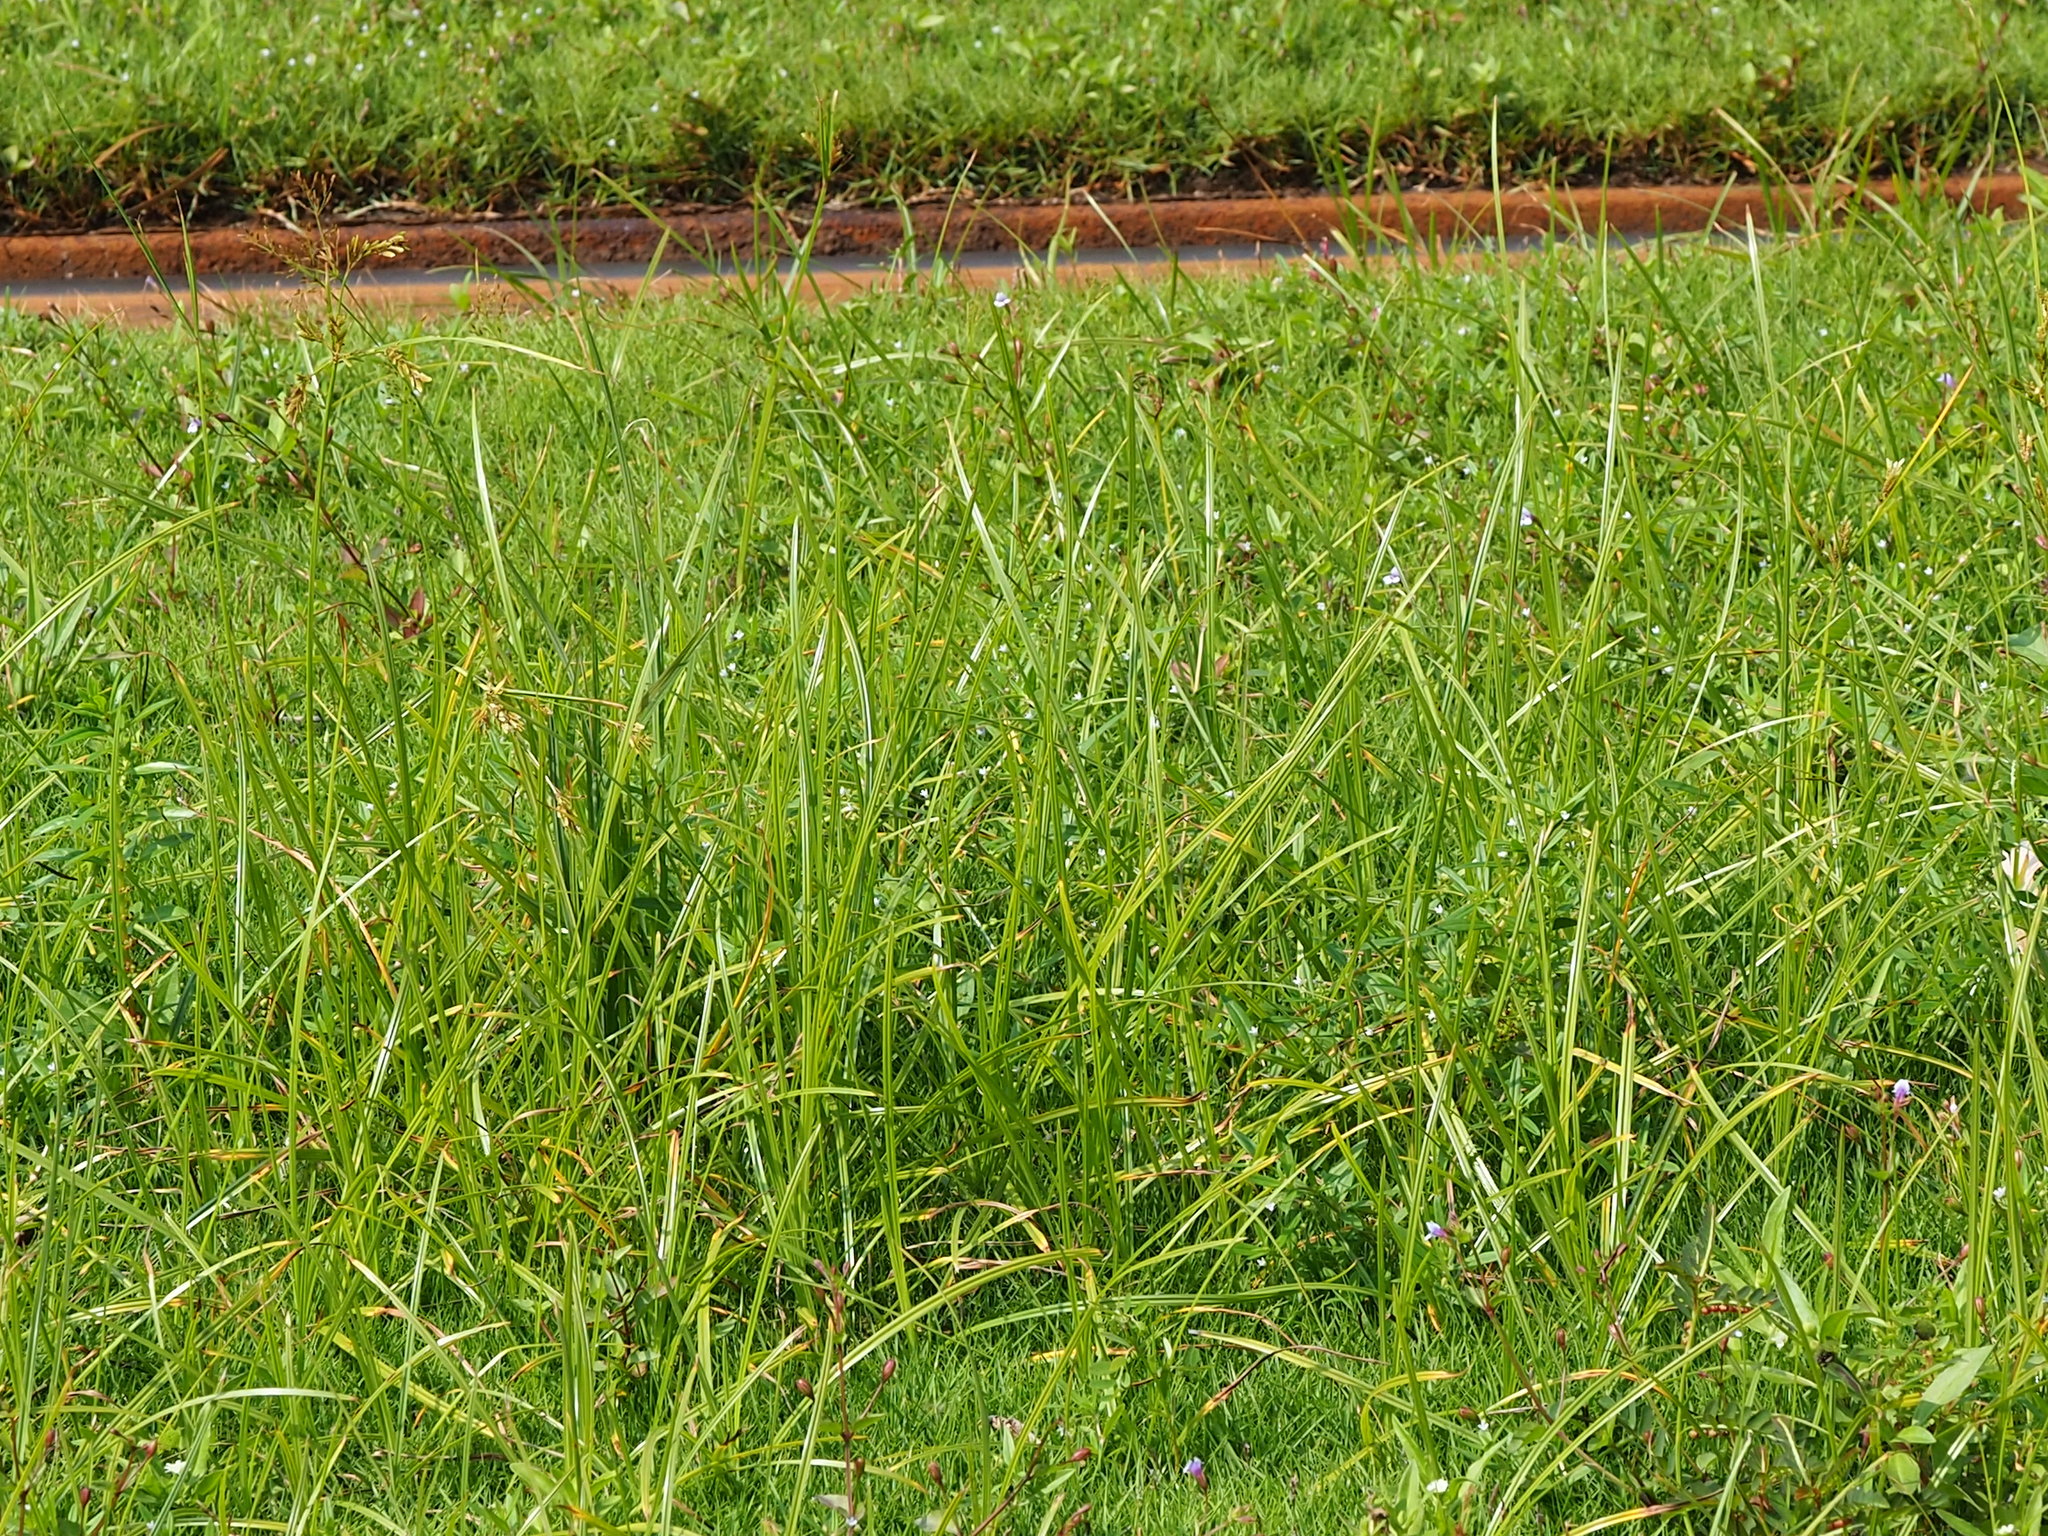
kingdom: Plantae
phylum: Tracheophyta
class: Liliopsida
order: Poales
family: Cyperaceae
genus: Cyperus
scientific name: Cyperus rotundus
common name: Nutgrass
